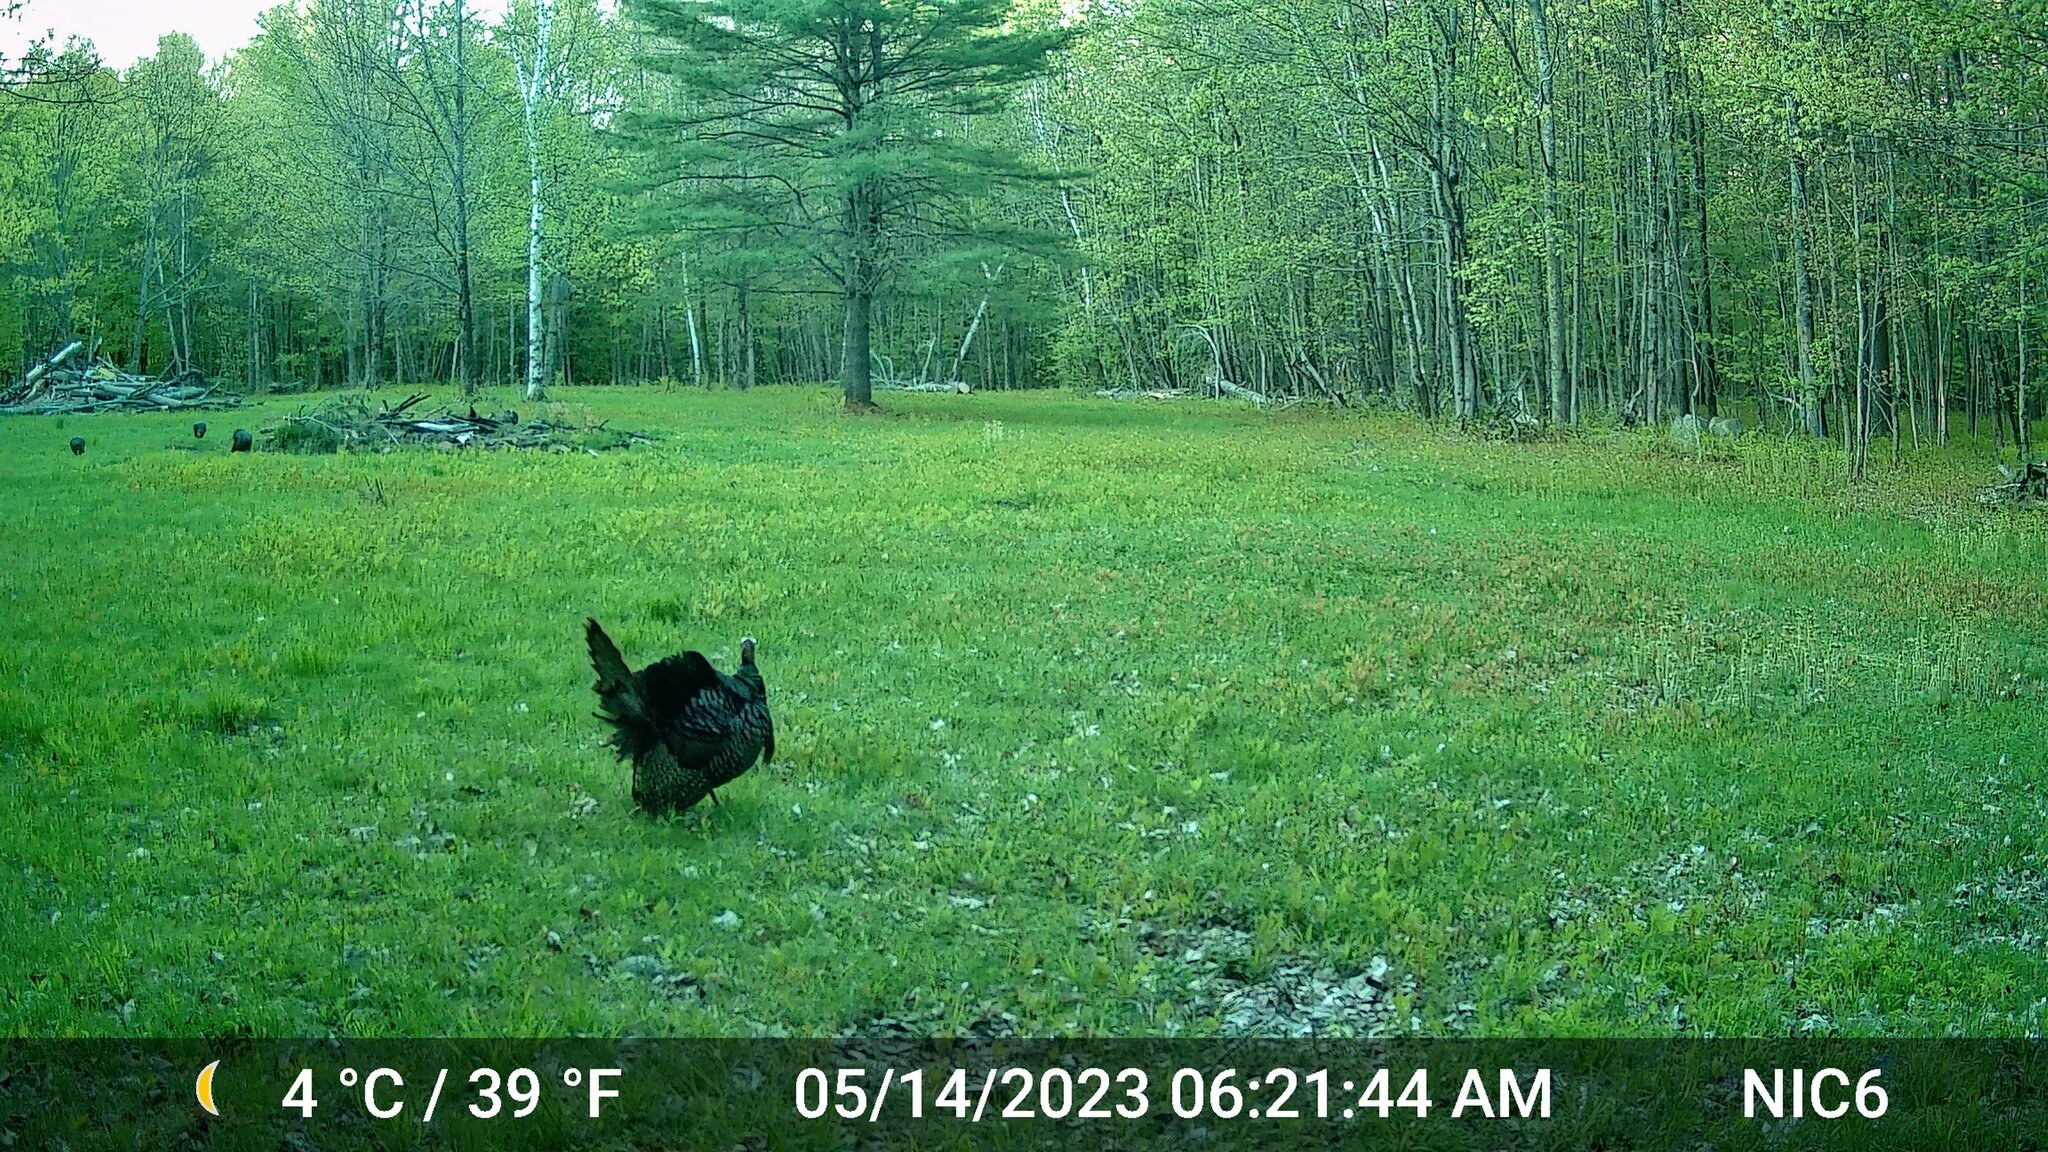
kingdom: Animalia
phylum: Chordata
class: Aves
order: Galliformes
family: Phasianidae
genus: Meleagris
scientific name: Meleagris gallopavo
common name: Wild turkey
